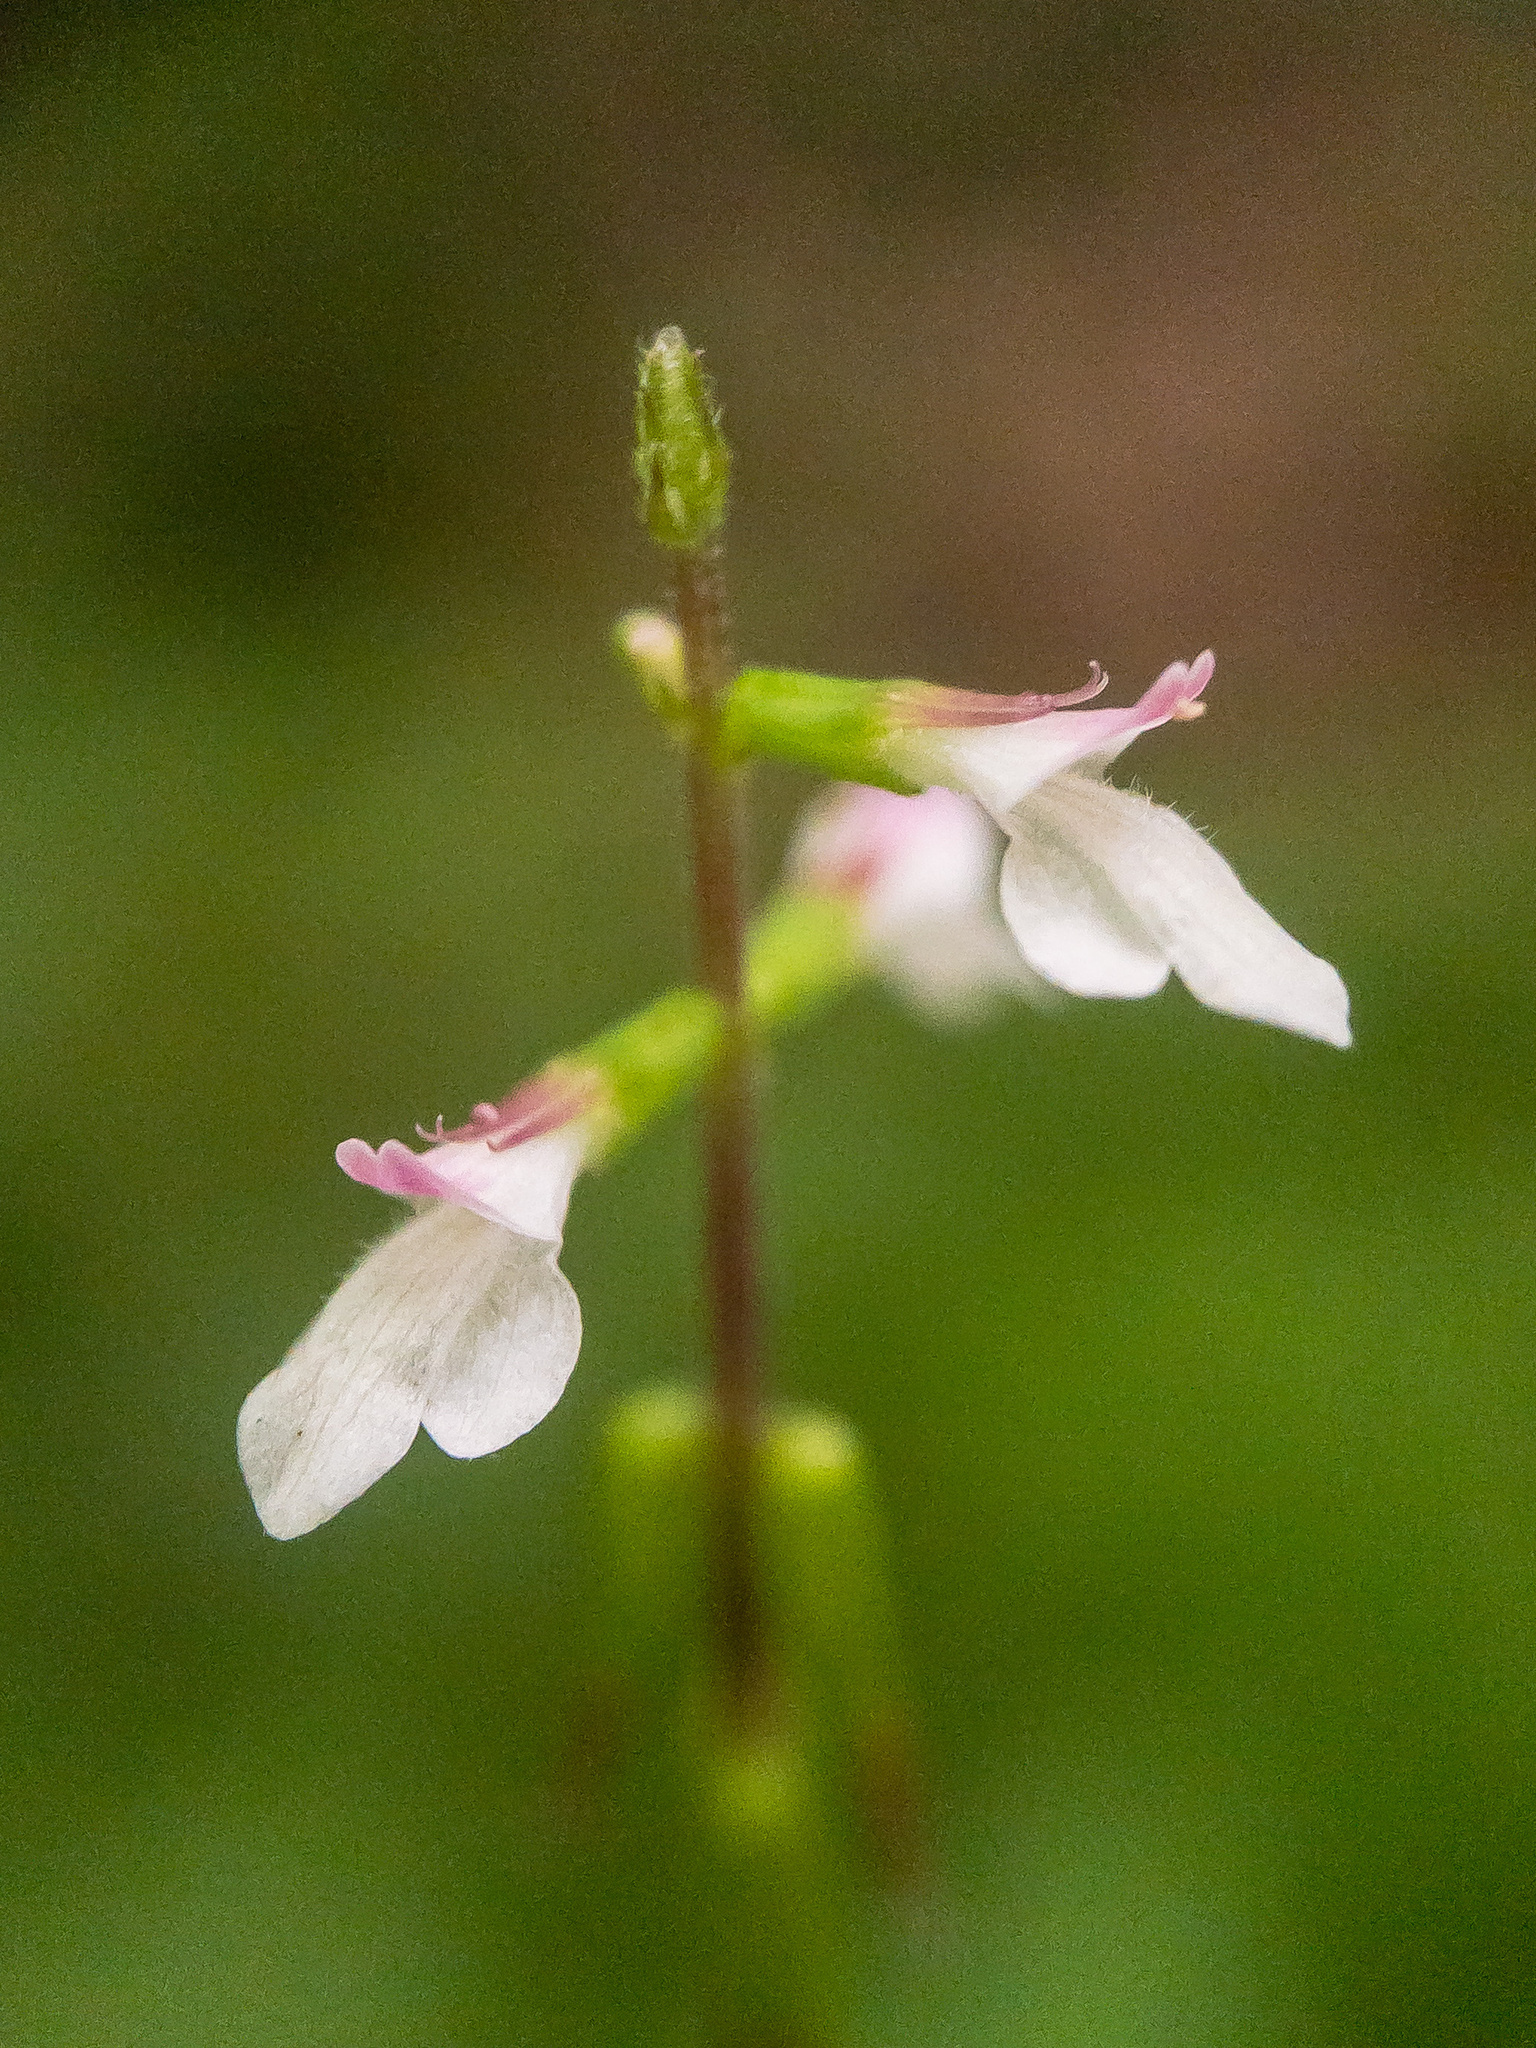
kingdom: Plantae
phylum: Tracheophyta
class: Magnoliopsida
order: Lamiales
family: Phrymaceae
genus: Phryma
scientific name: Phryma leptostachya
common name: American lopseed
